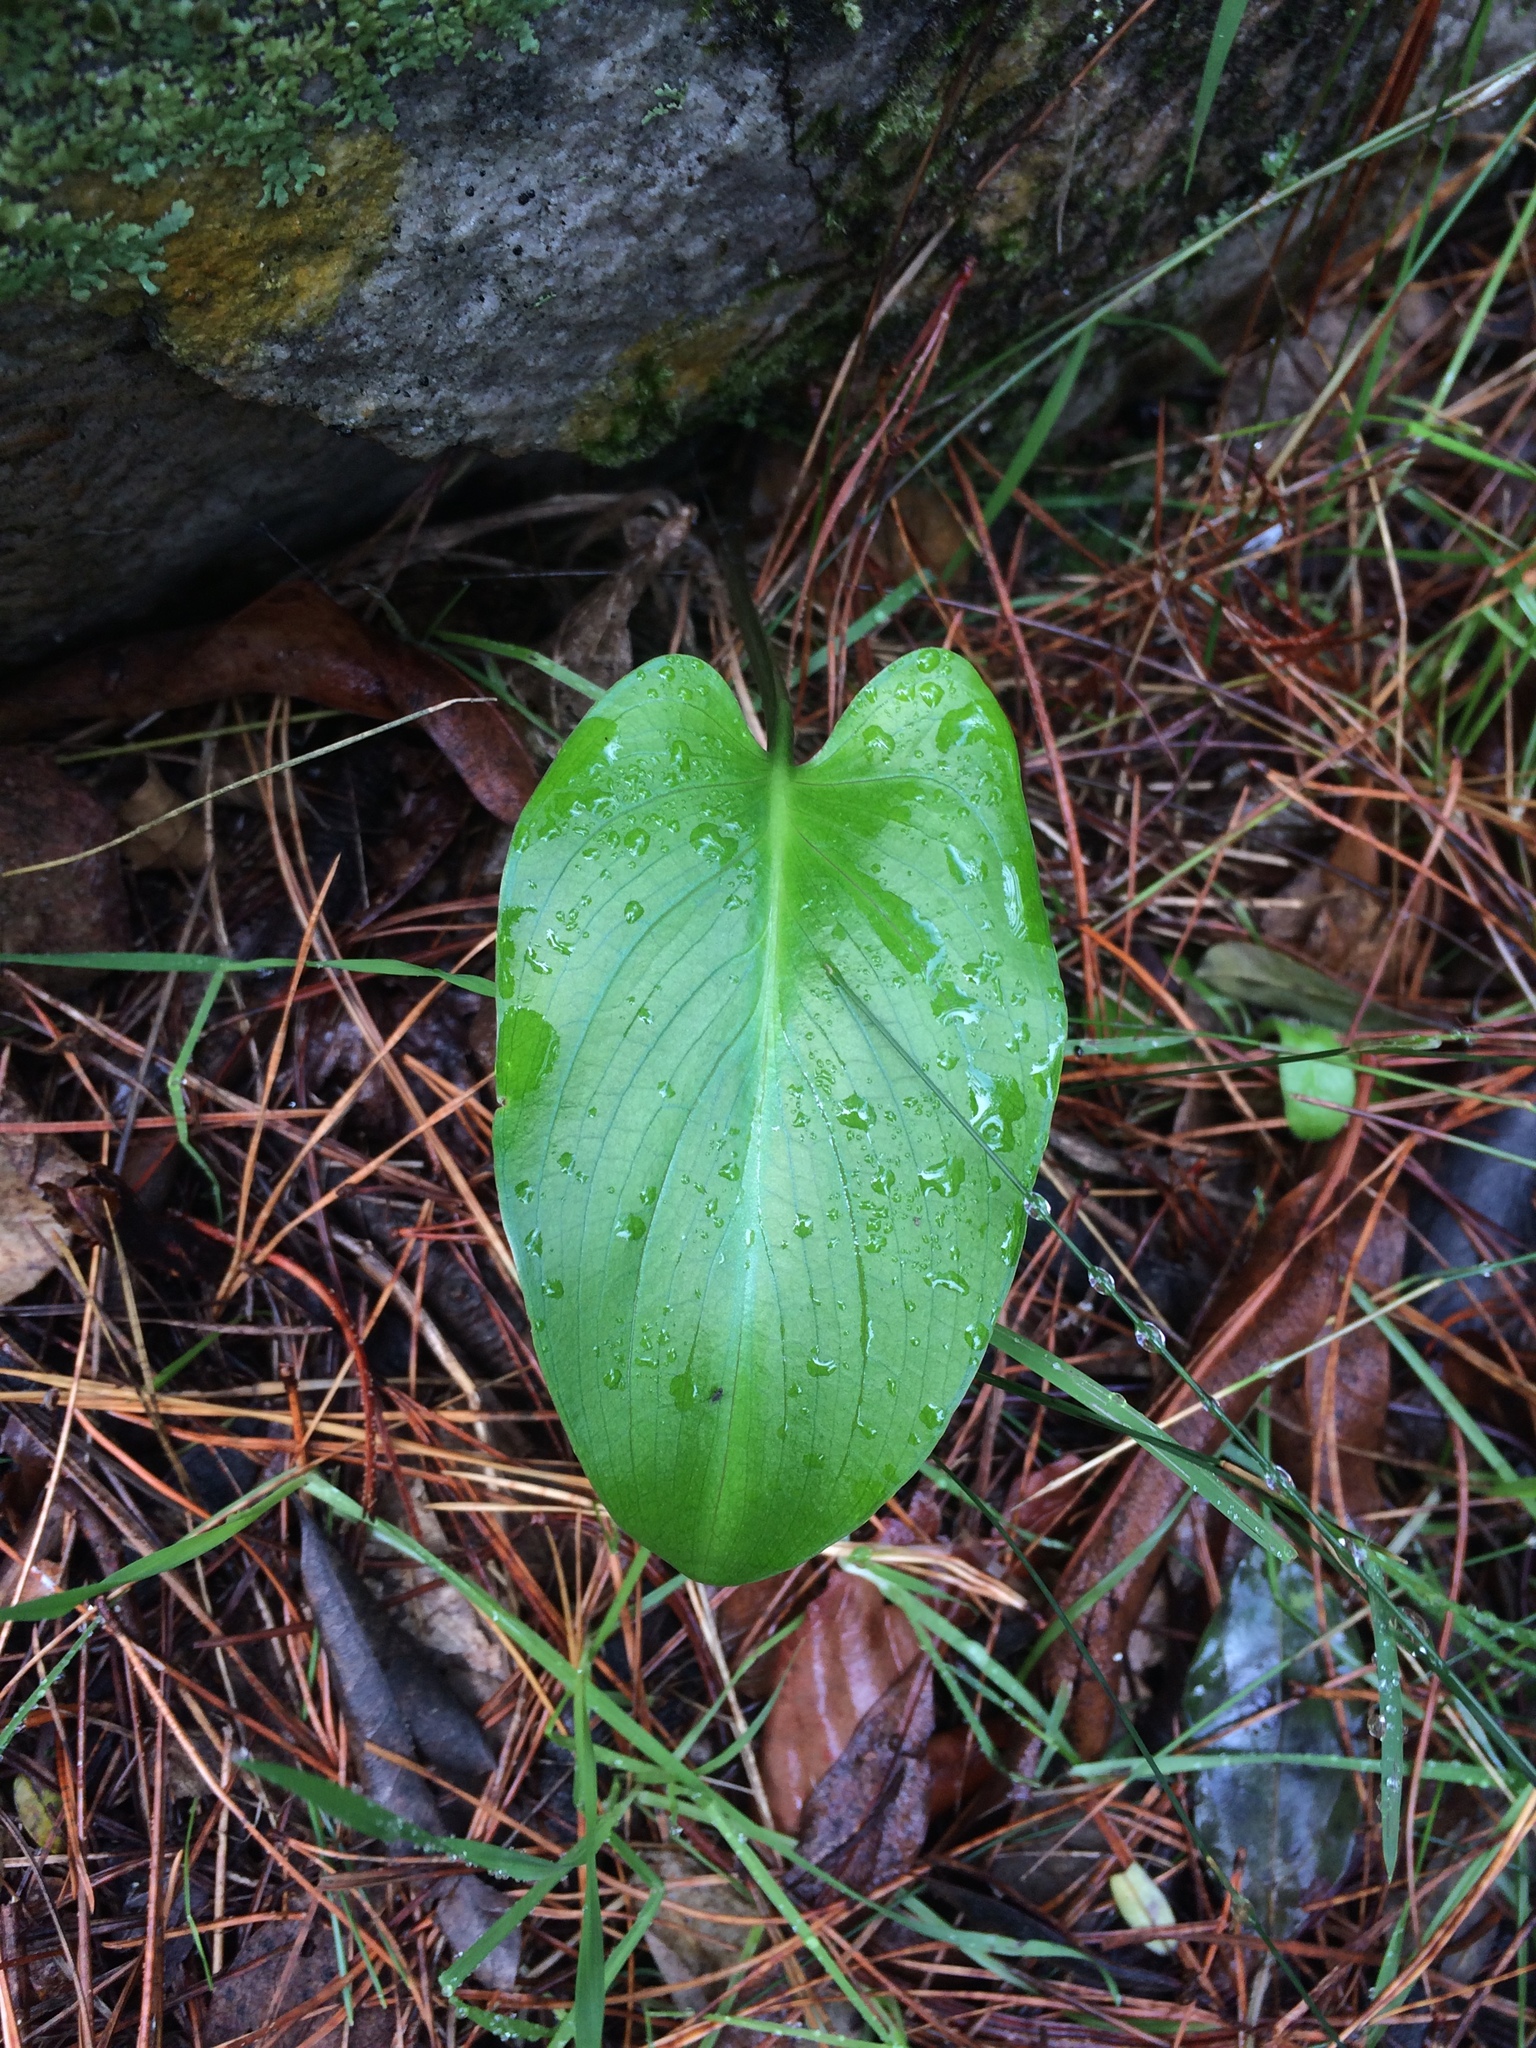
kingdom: Plantae
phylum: Tracheophyta
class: Liliopsida
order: Alismatales
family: Araceae
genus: Zantedeschia
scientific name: Zantedeschia aethiopica
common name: Altar-lily
